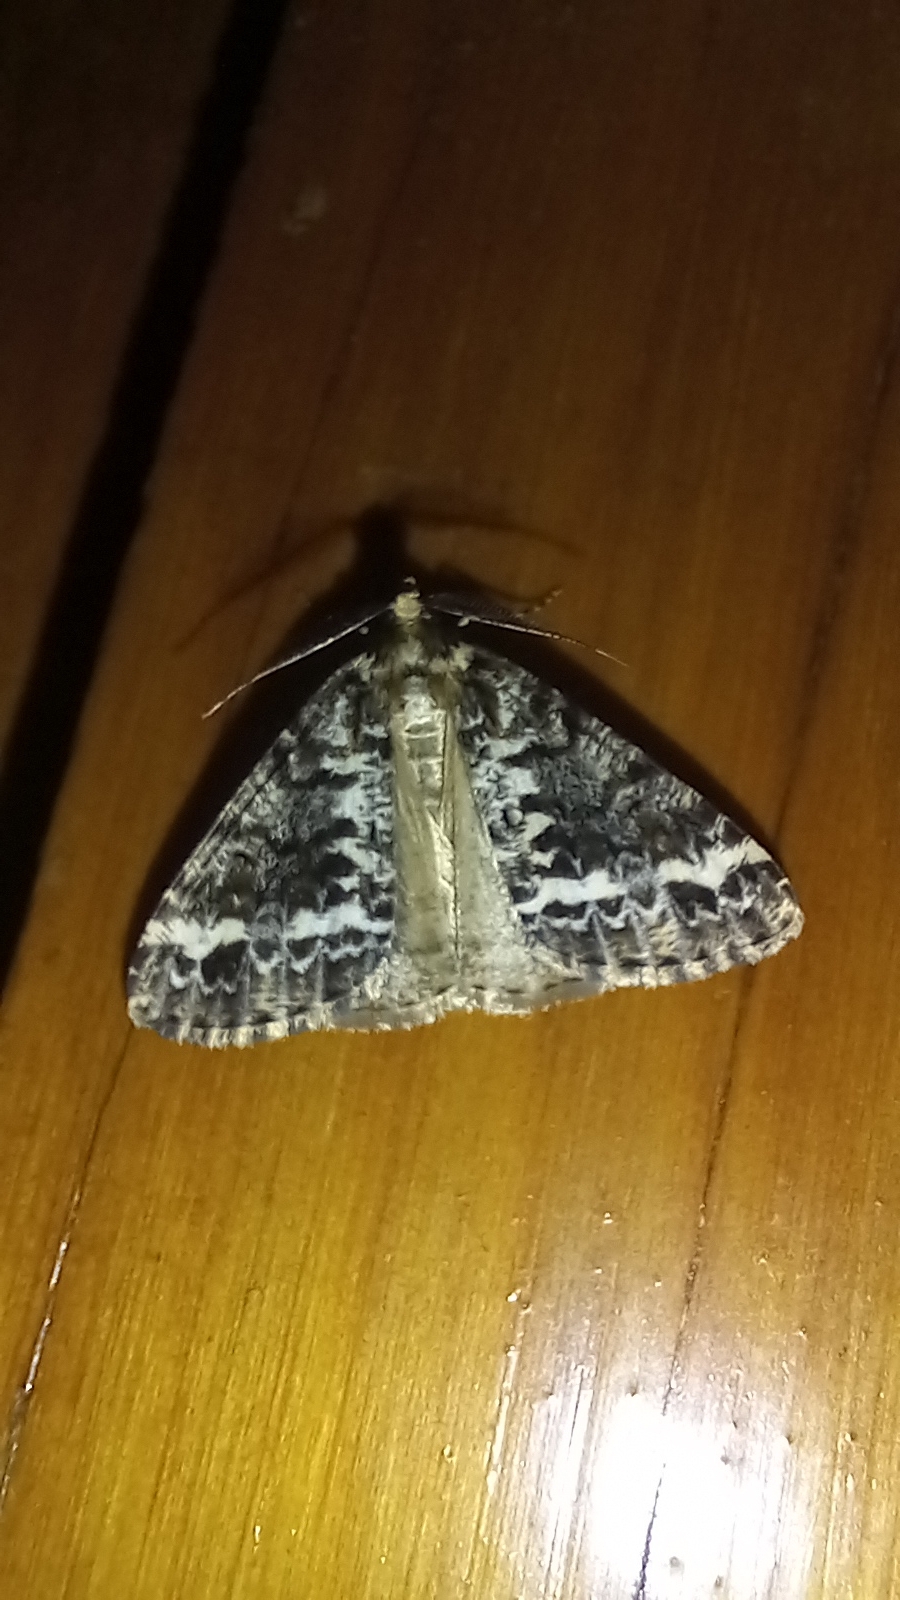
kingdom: Animalia
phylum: Arthropoda
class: Insecta
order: Lepidoptera
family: Geometridae
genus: Pseudocoremia
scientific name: Pseudocoremia leucelaea
